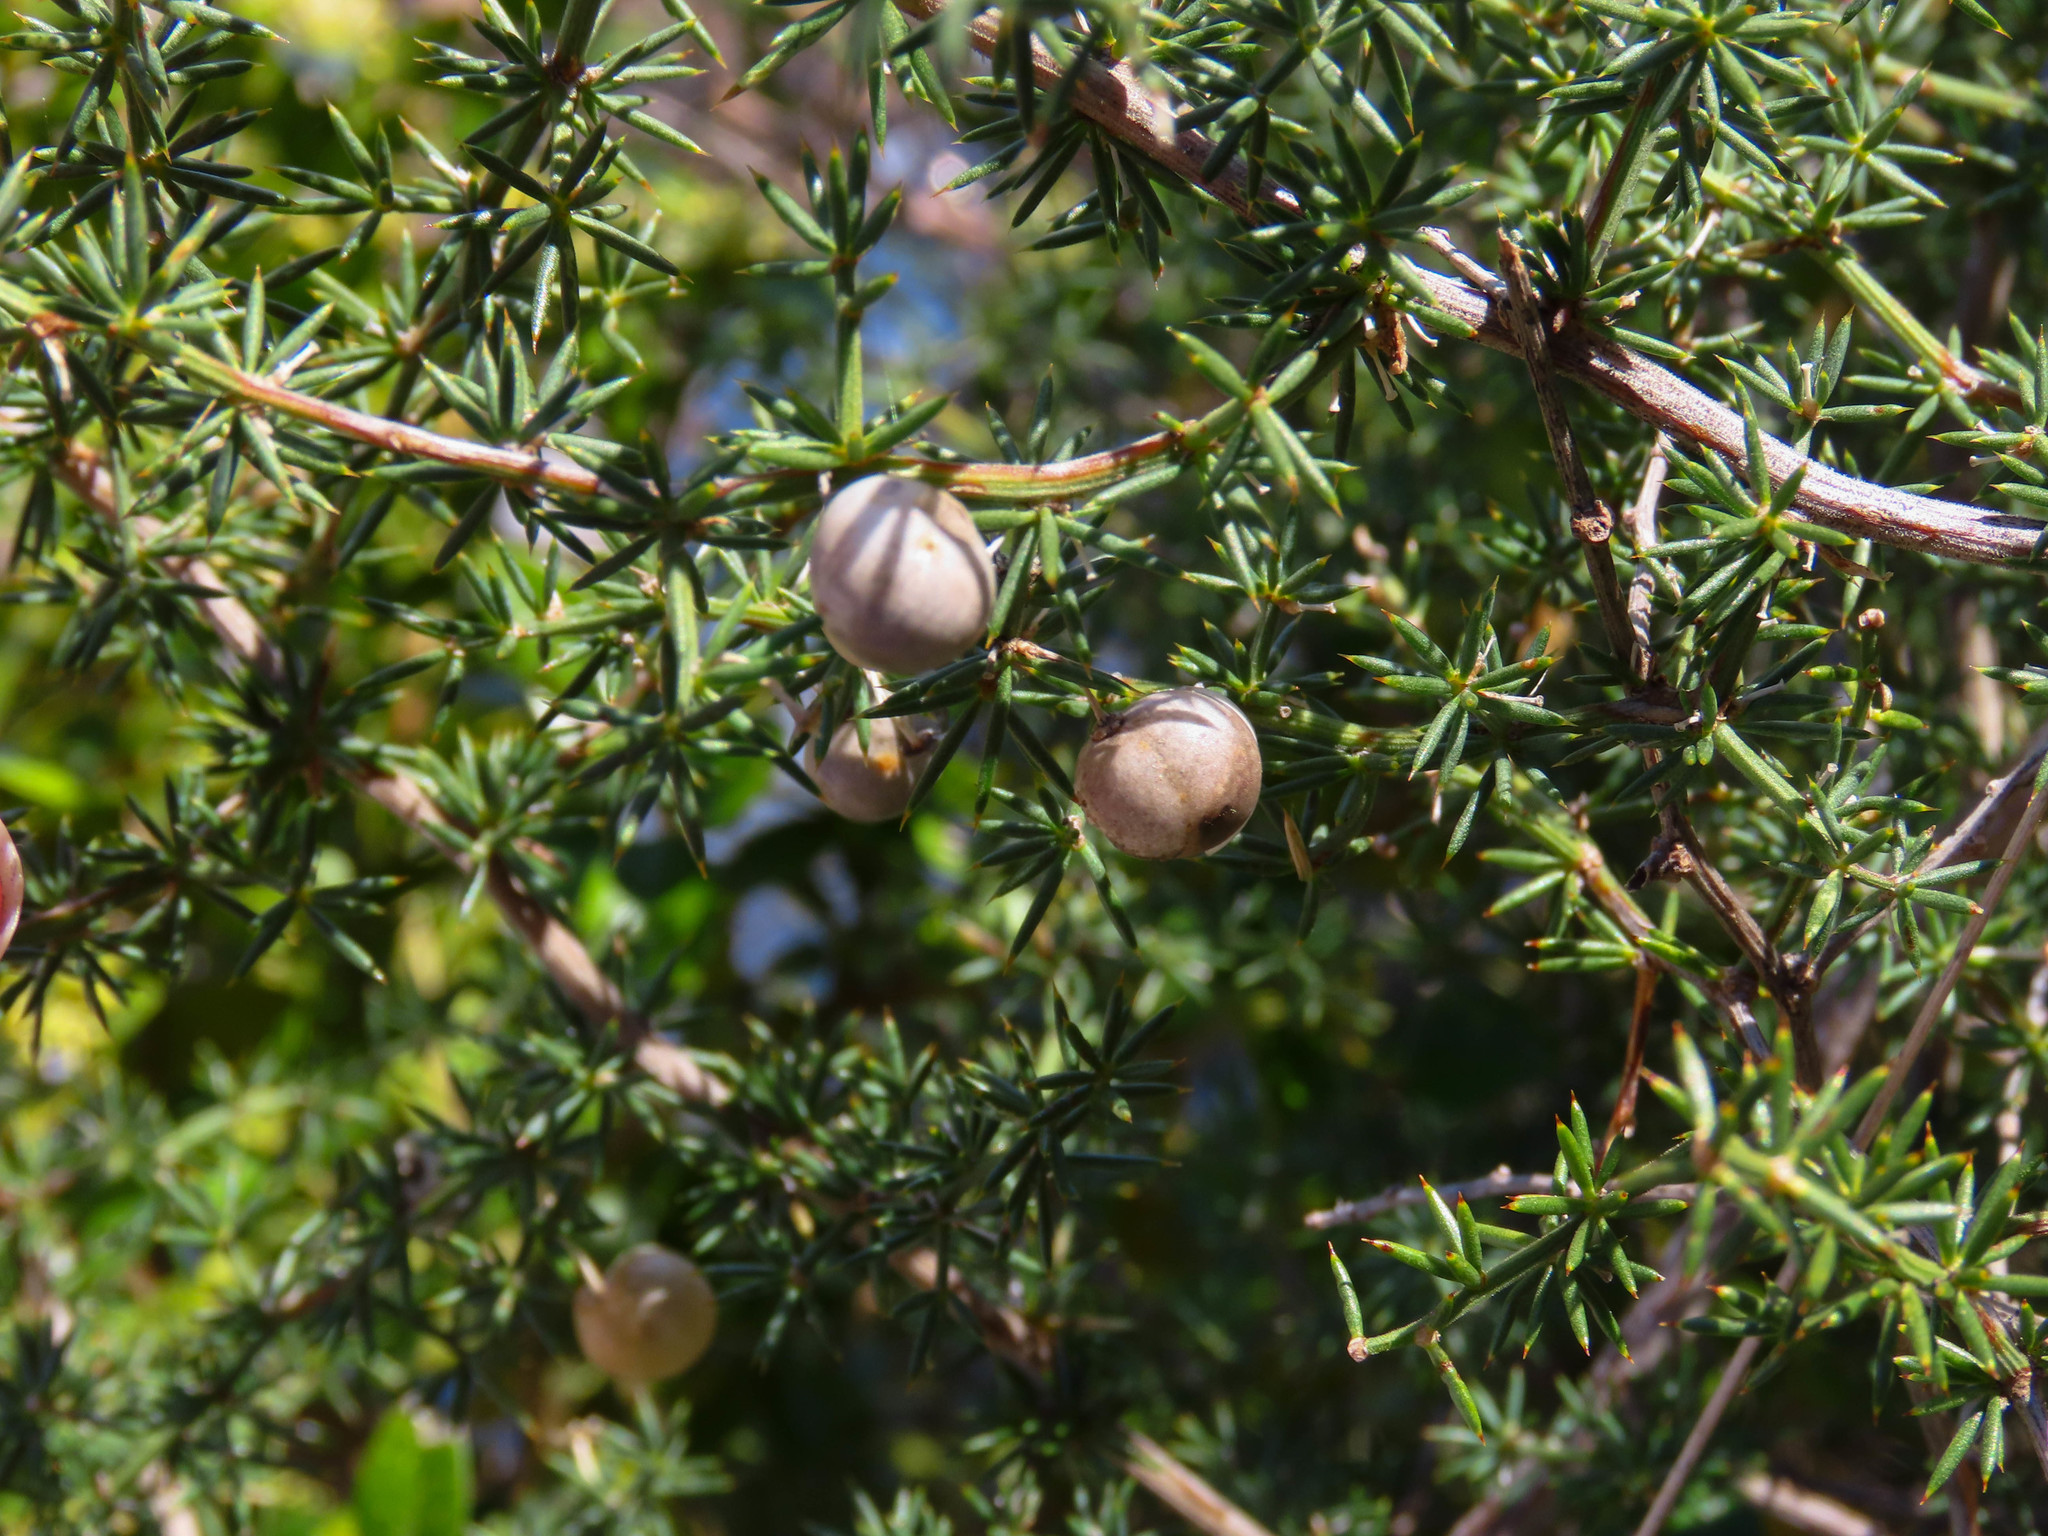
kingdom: Plantae
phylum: Tracheophyta
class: Liliopsida
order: Asparagales
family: Asparagaceae
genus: Asparagus
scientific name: Asparagus acutifolius
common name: Wild asparagus
